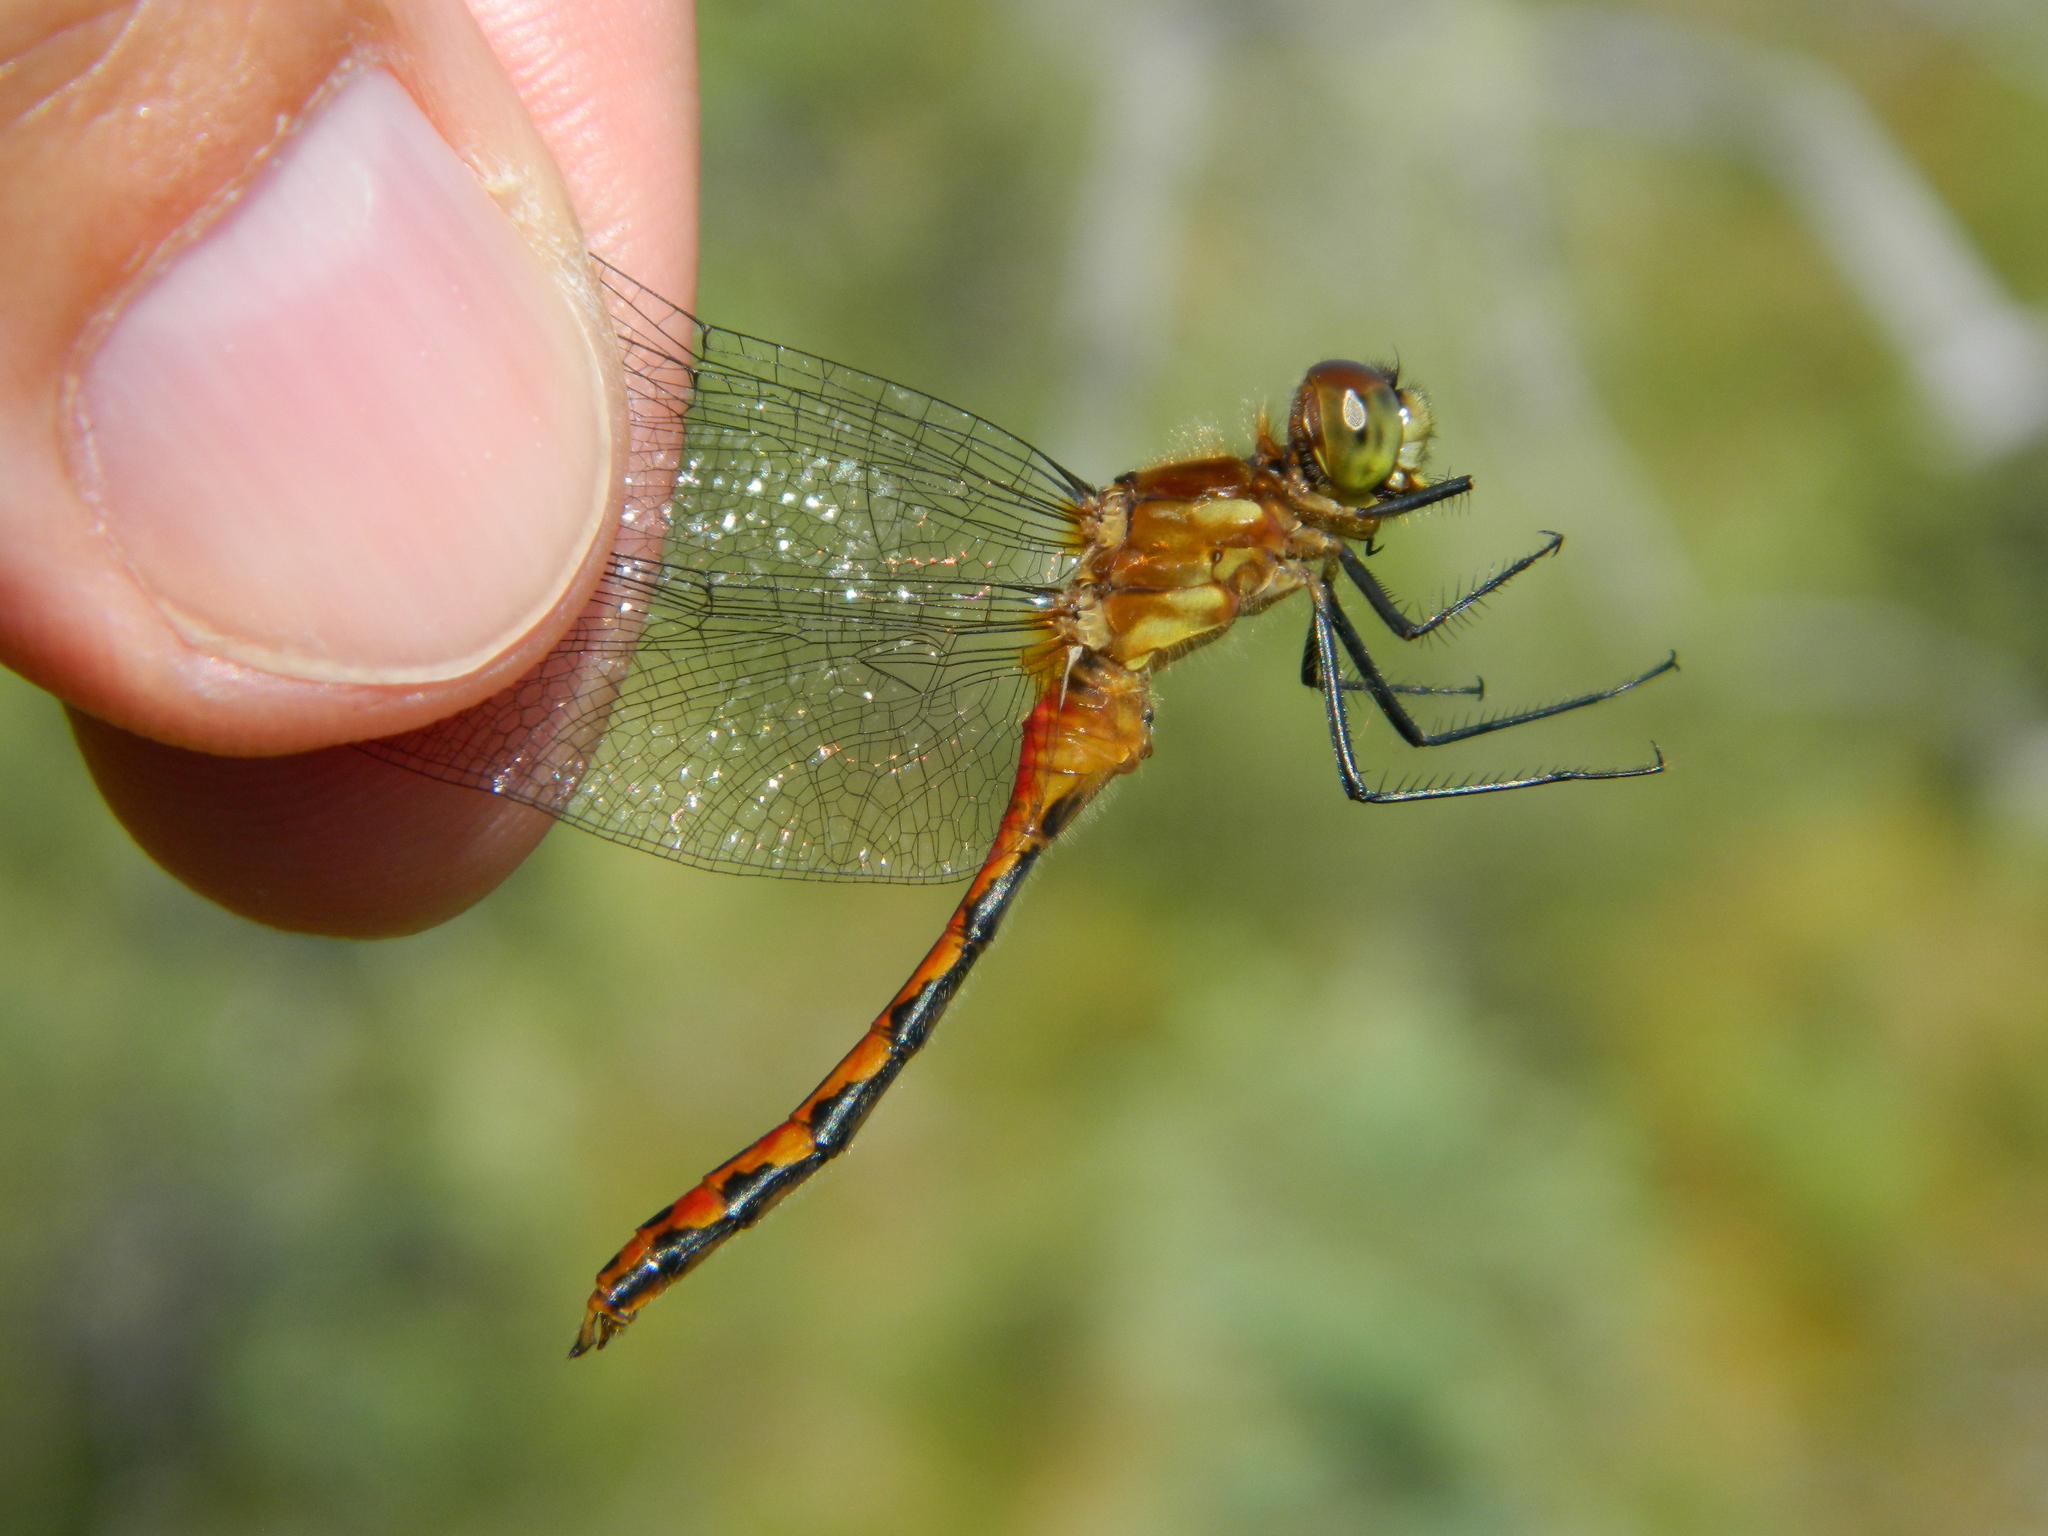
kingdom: Animalia
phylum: Arthropoda
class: Insecta
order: Odonata
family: Libellulidae
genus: Sympetrum
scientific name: Sympetrum obtrusum
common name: White-faced meadowhawk
